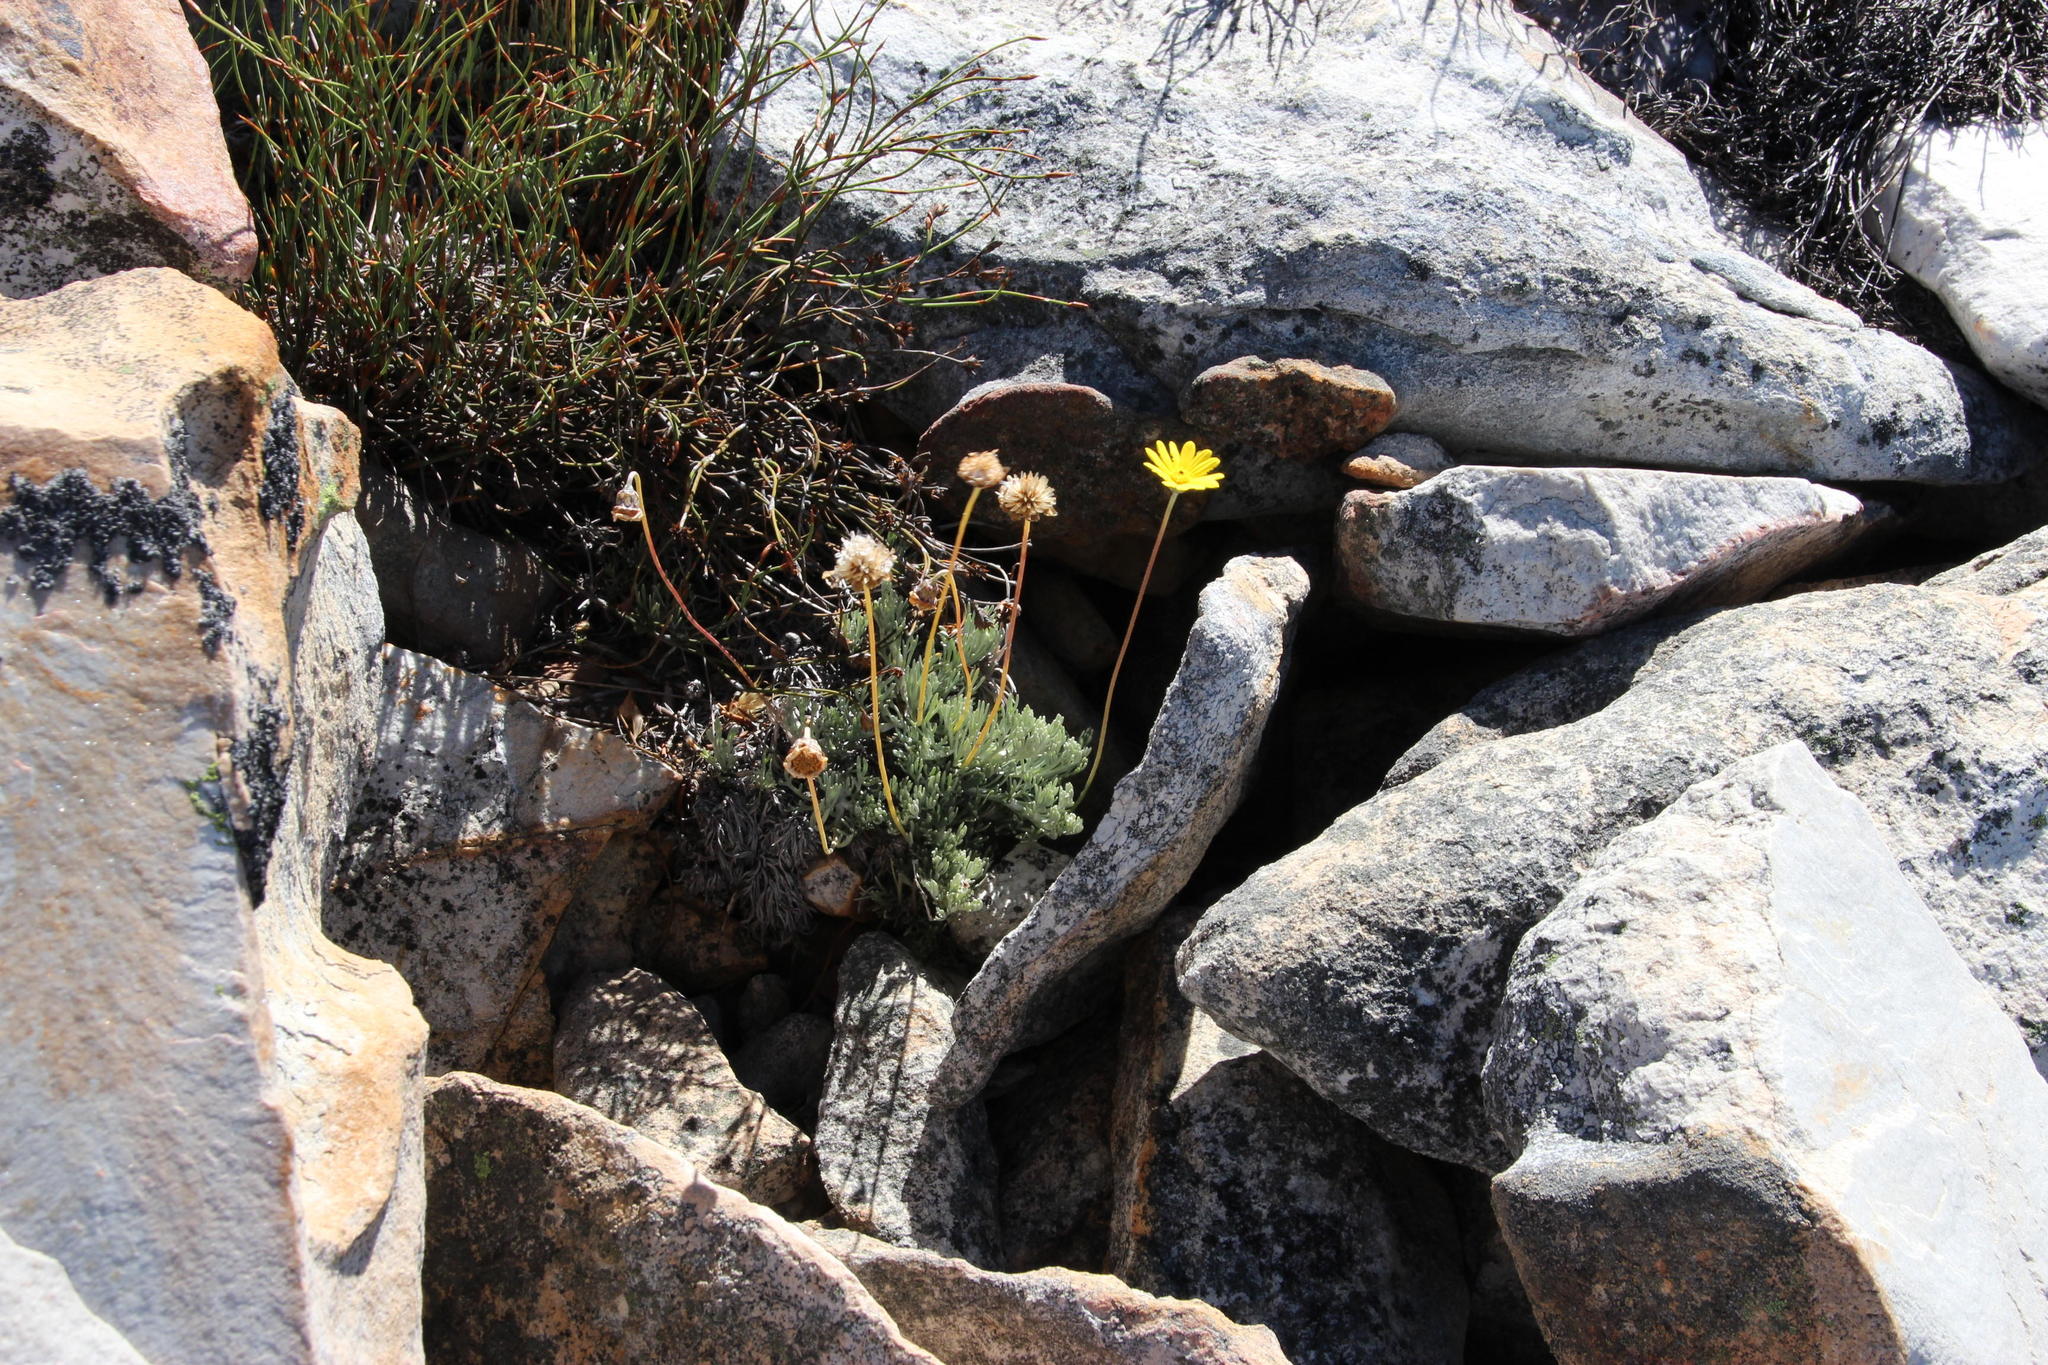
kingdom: Plantae
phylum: Tracheophyta
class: Magnoliopsida
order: Asterales
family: Asteraceae
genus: Ursinia
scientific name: Ursinia sericea
